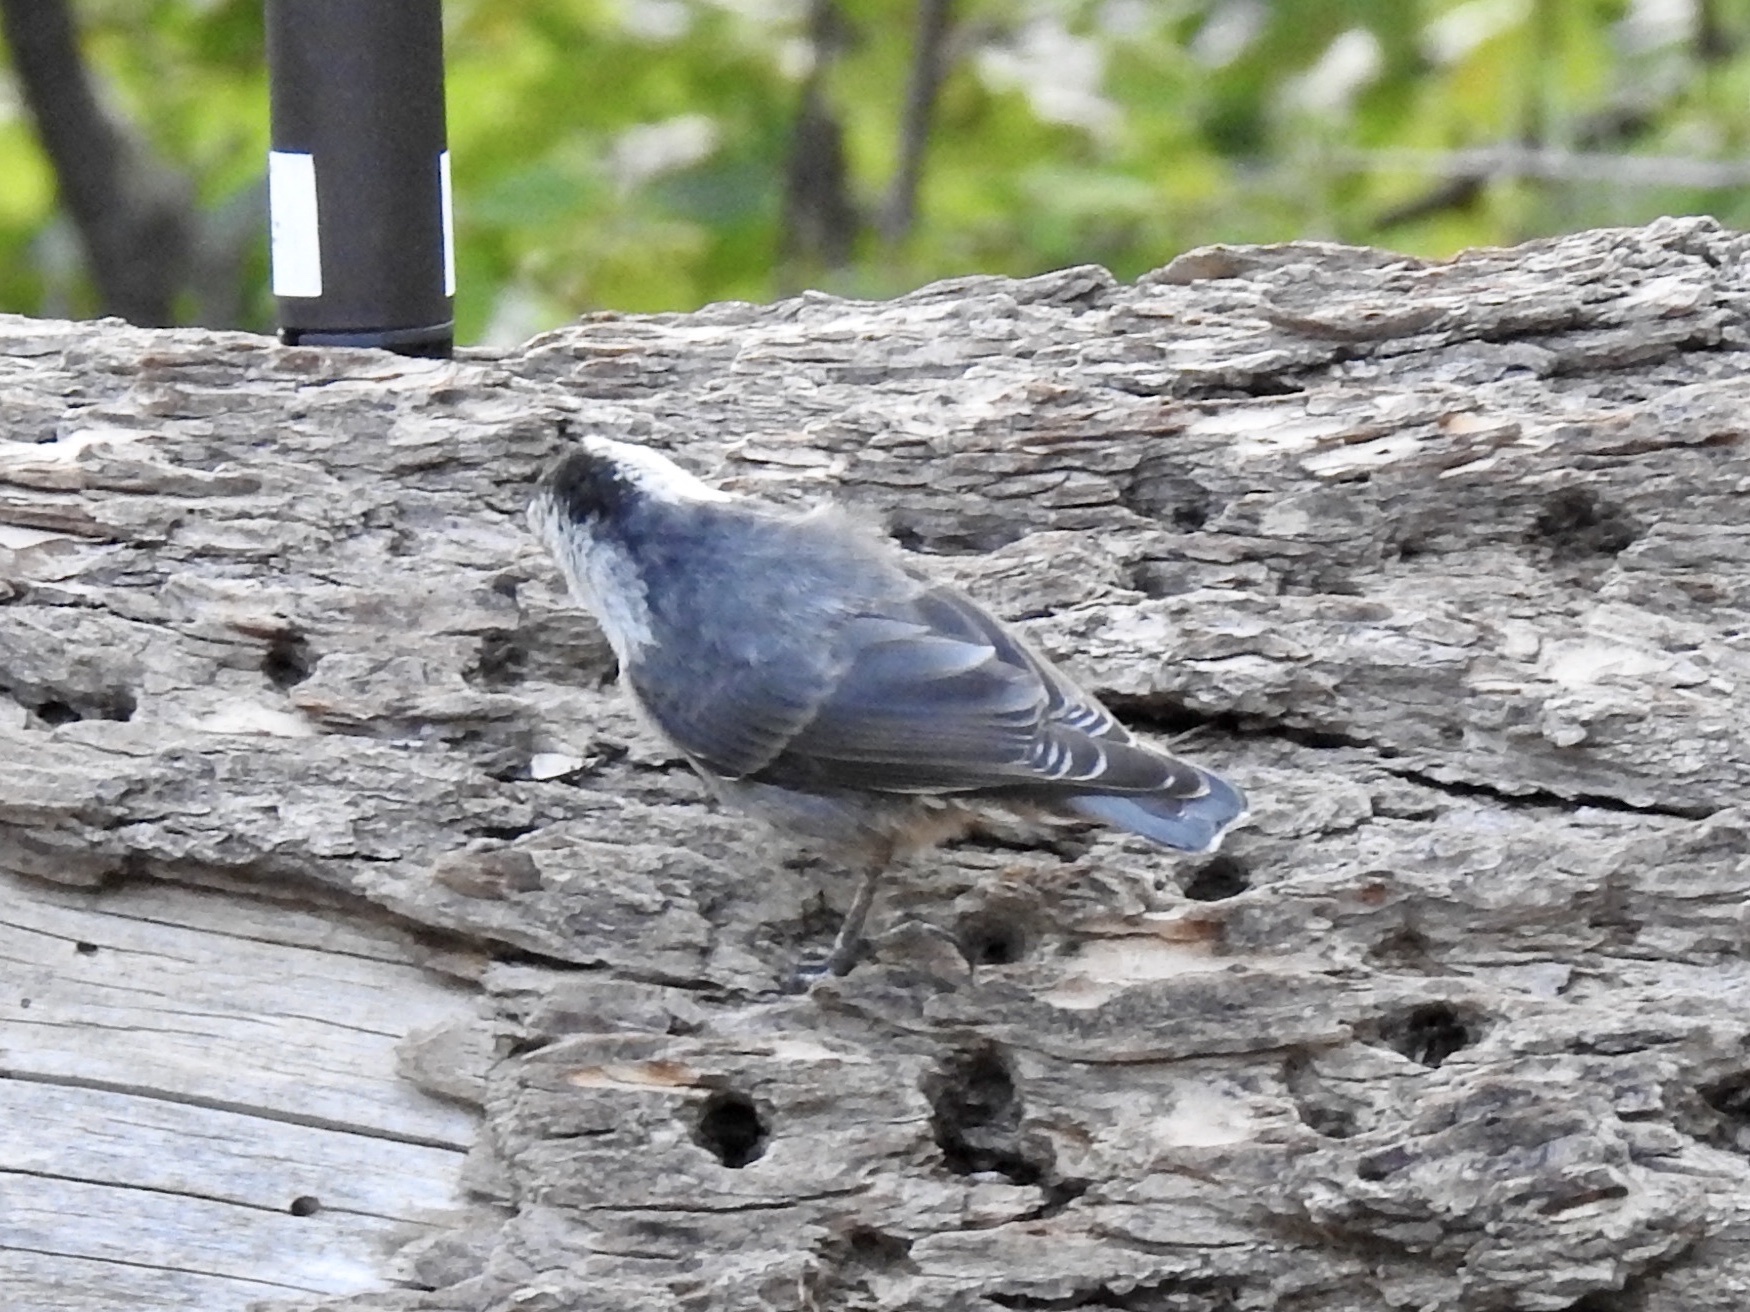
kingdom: Animalia
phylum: Chordata
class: Aves
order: Passeriformes
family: Sittidae
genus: Sitta
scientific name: Sitta carolinensis
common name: White-breasted nuthatch
